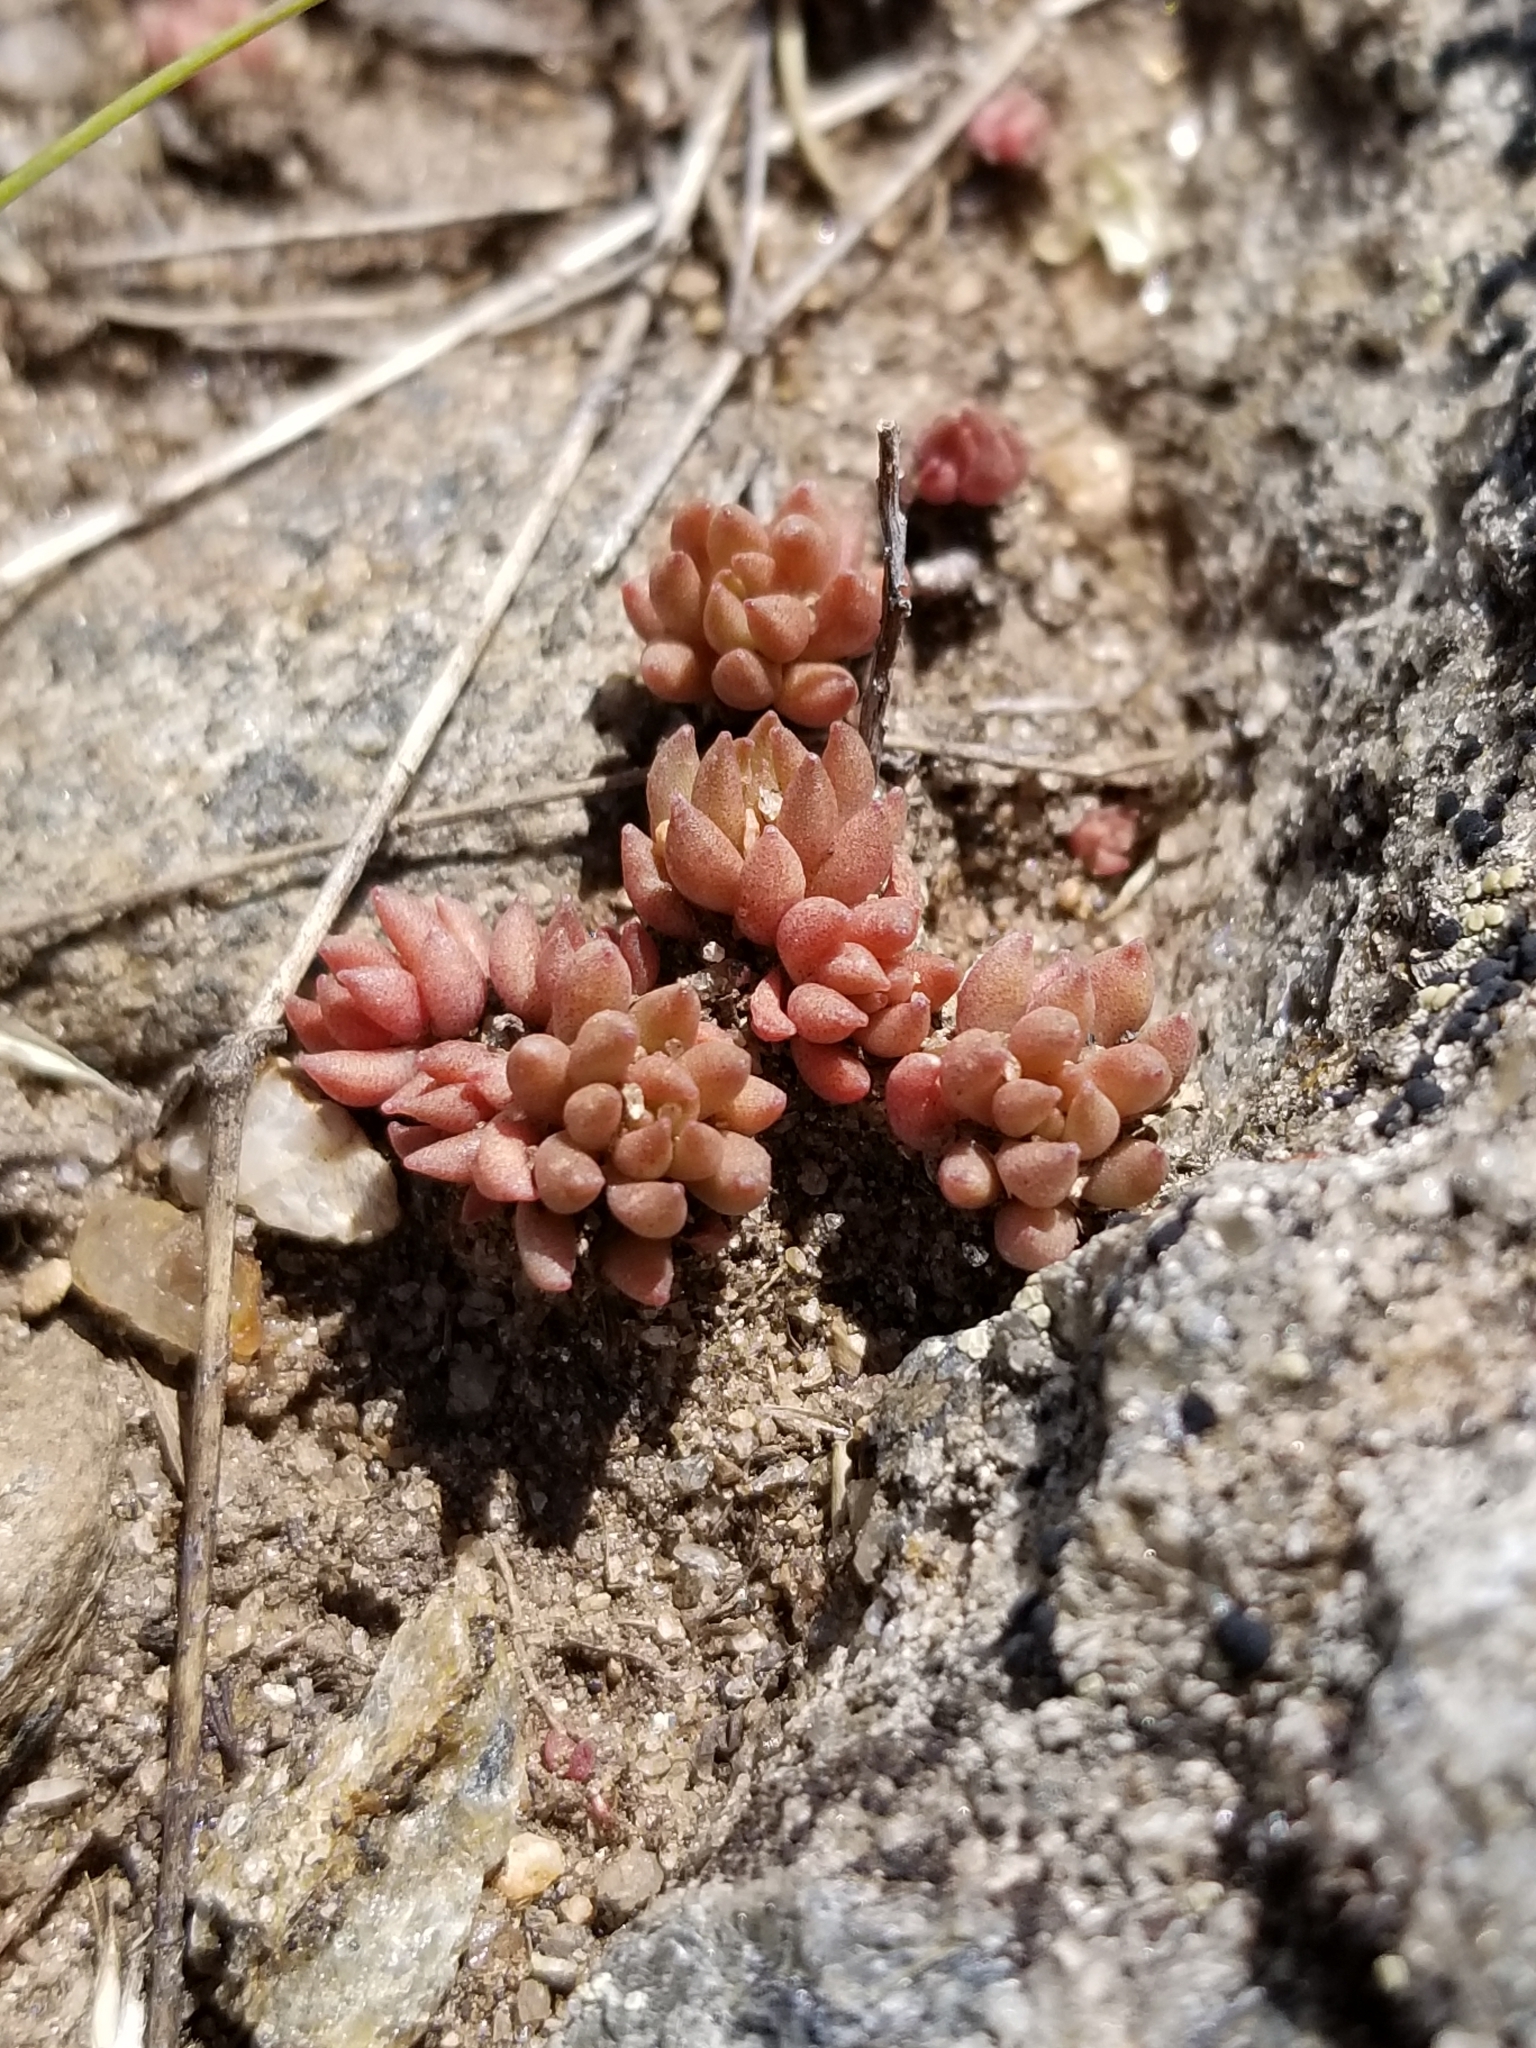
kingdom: Plantae
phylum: Tracheophyta
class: Magnoliopsida
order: Saxifragales
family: Crassulaceae
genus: Sedum
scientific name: Sedum lanceolatum
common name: Common stonecrop
